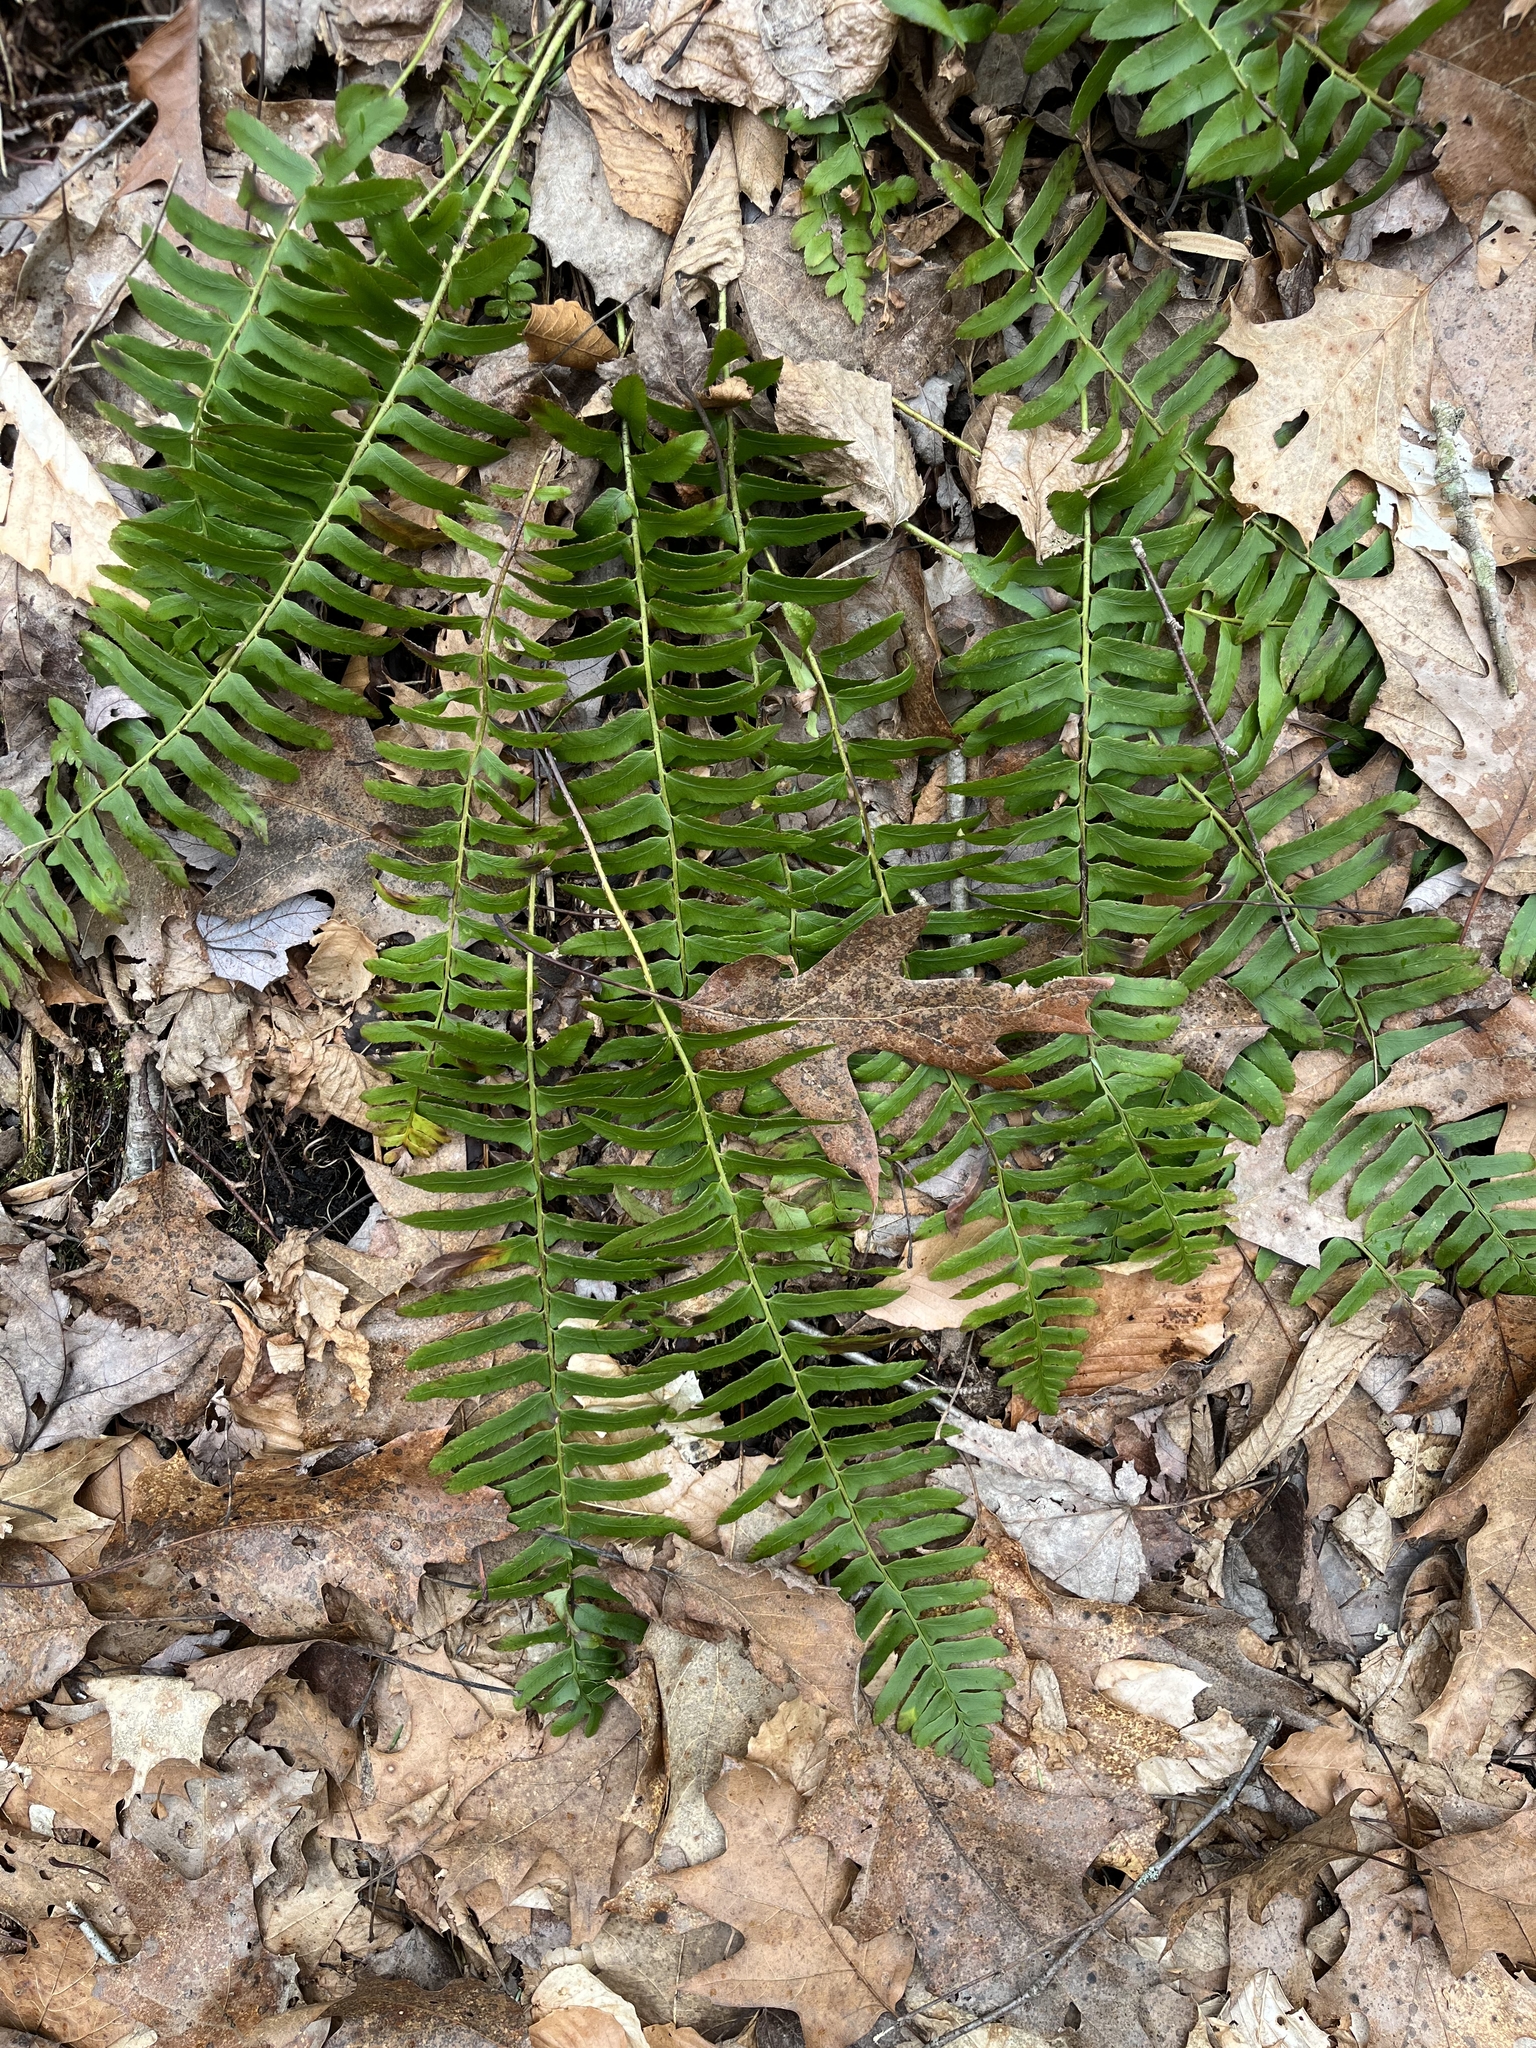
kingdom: Plantae
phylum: Tracheophyta
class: Polypodiopsida
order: Polypodiales
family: Dryopteridaceae
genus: Polystichum
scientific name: Polystichum acrostichoides
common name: Christmas fern
